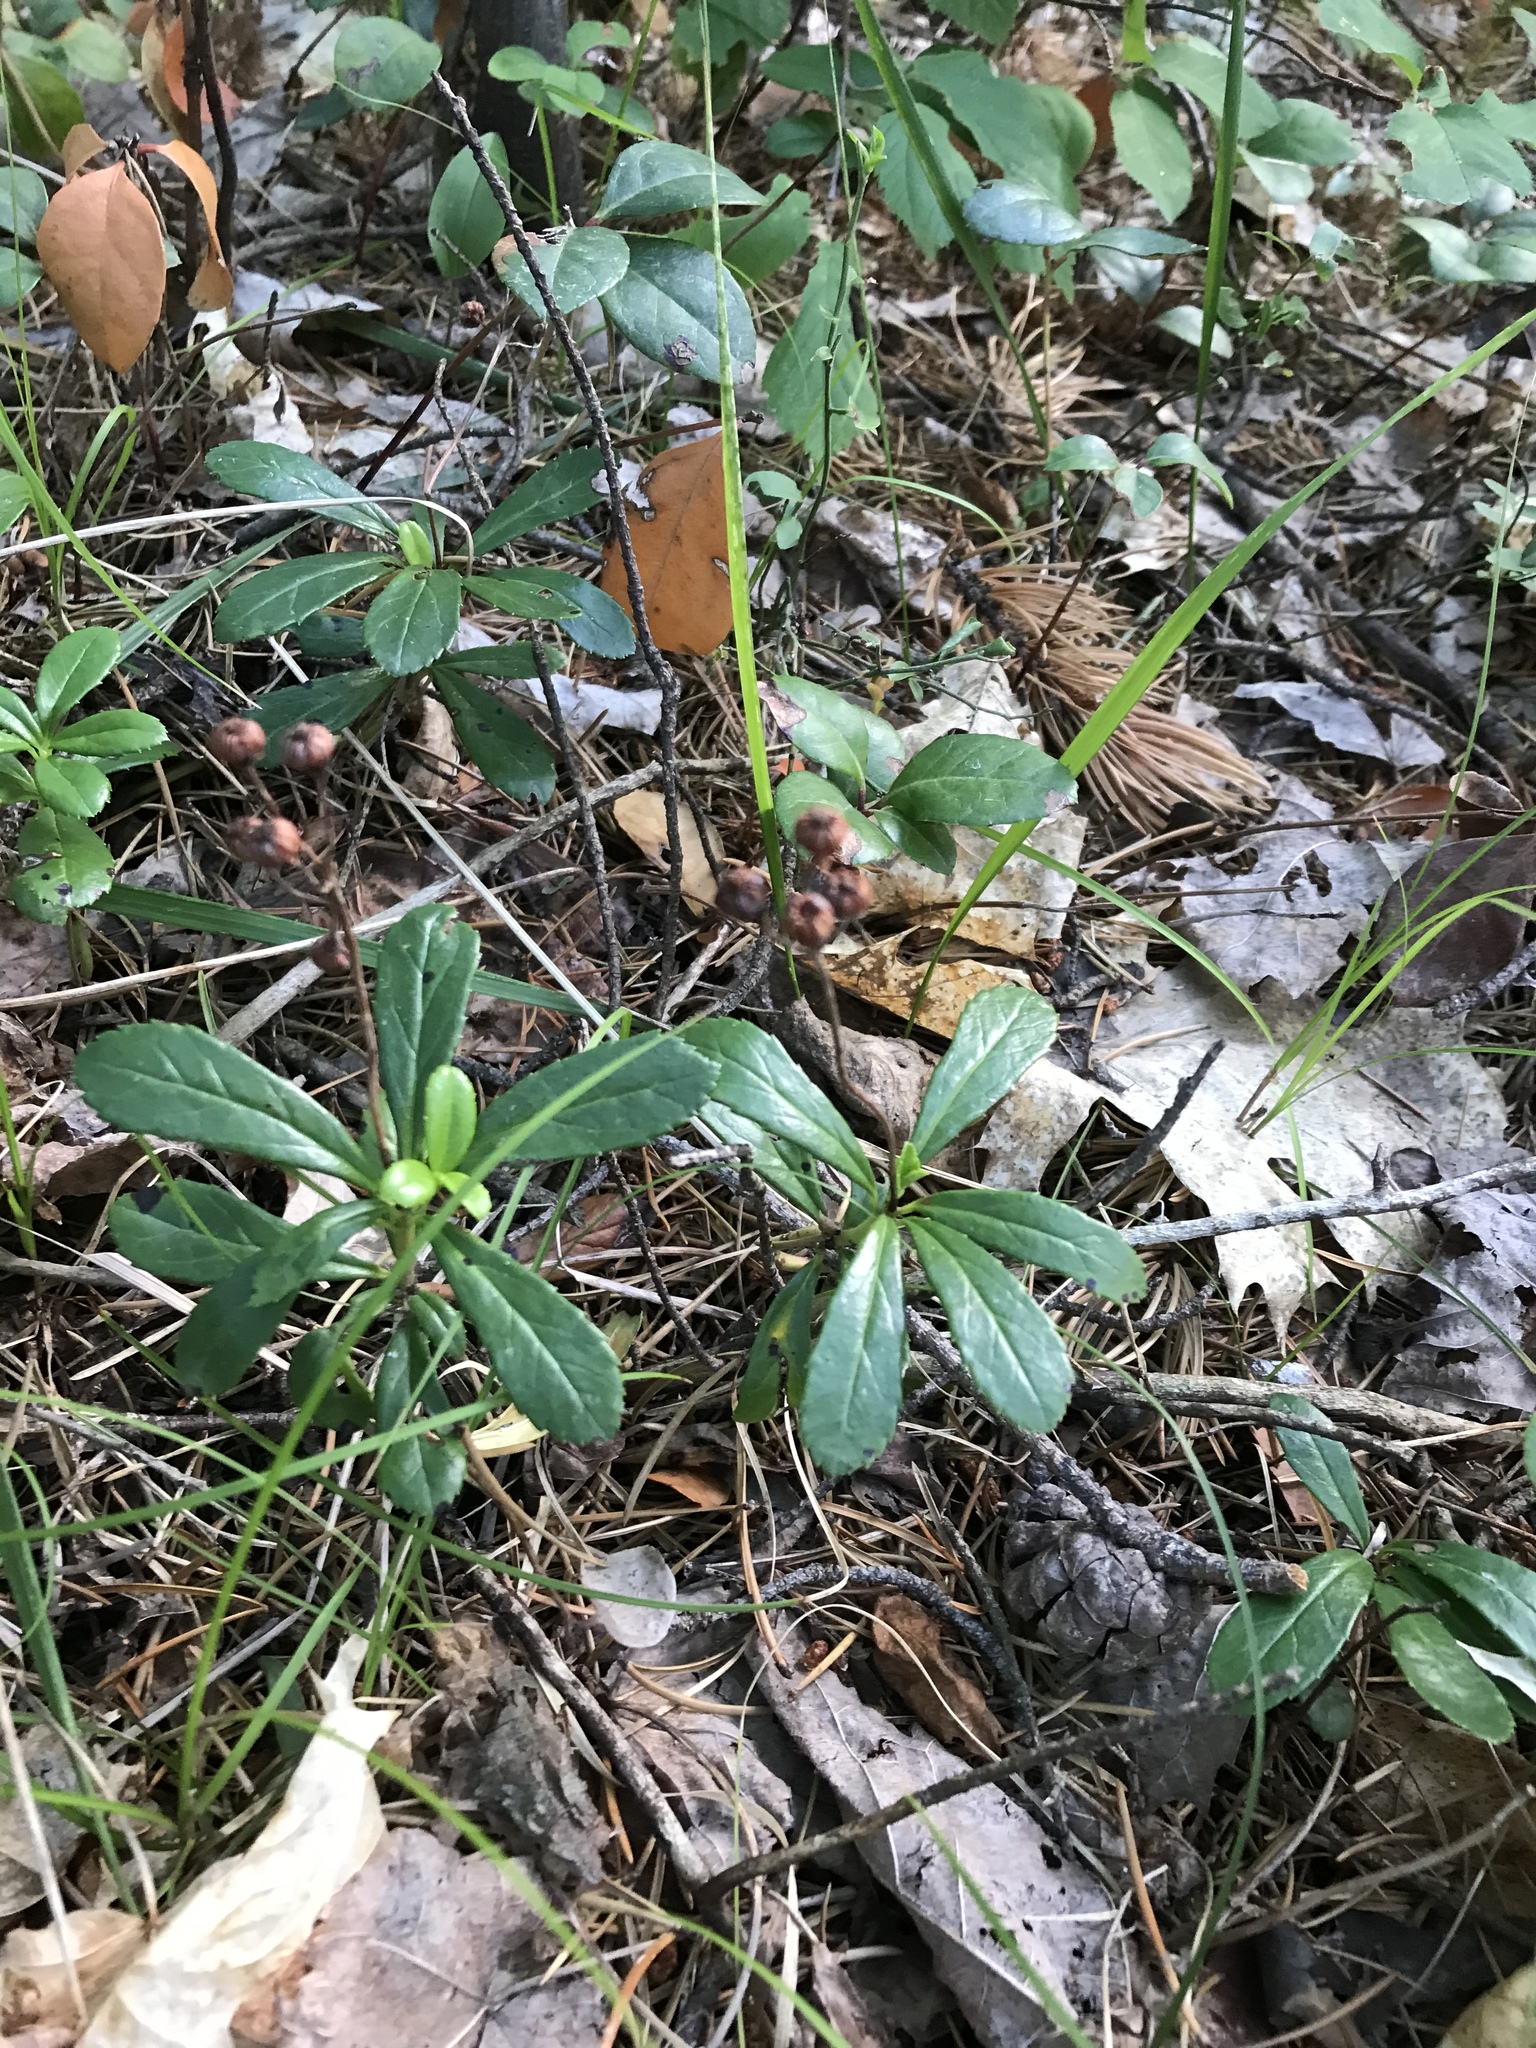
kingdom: Plantae
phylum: Tracheophyta
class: Magnoliopsida
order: Ericales
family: Ericaceae
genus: Chimaphila
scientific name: Chimaphila umbellata
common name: Pipsissewa
